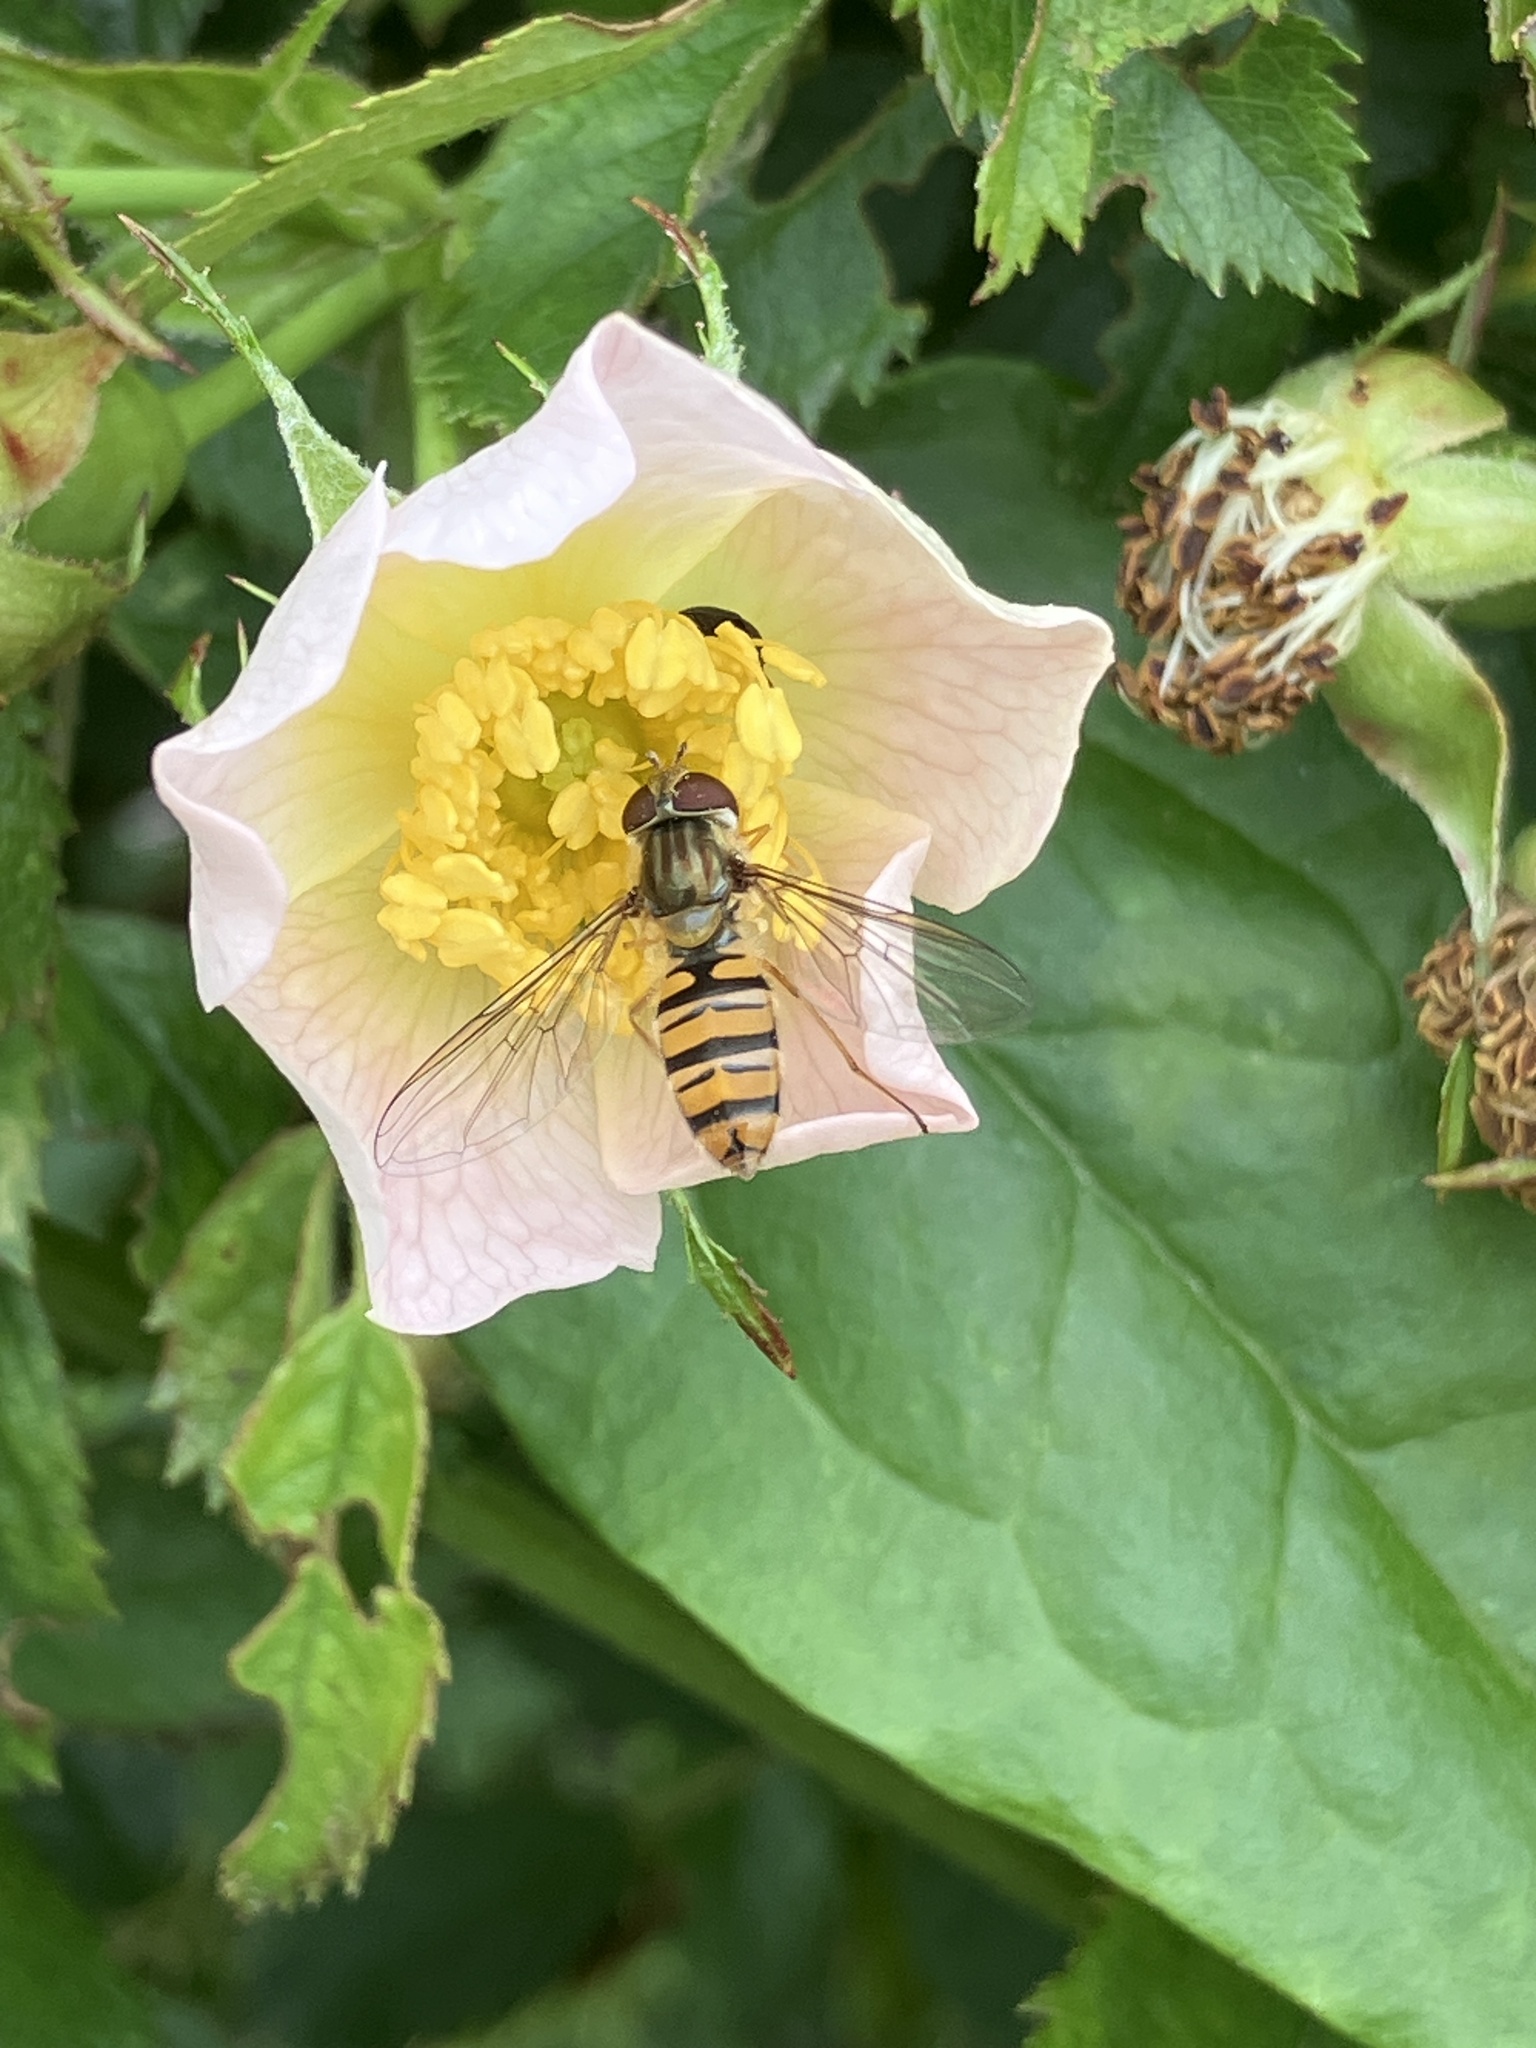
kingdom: Animalia
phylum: Arthropoda
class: Insecta
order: Diptera
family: Syrphidae
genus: Episyrphus
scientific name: Episyrphus balteatus
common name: Marmalade hoverfly
